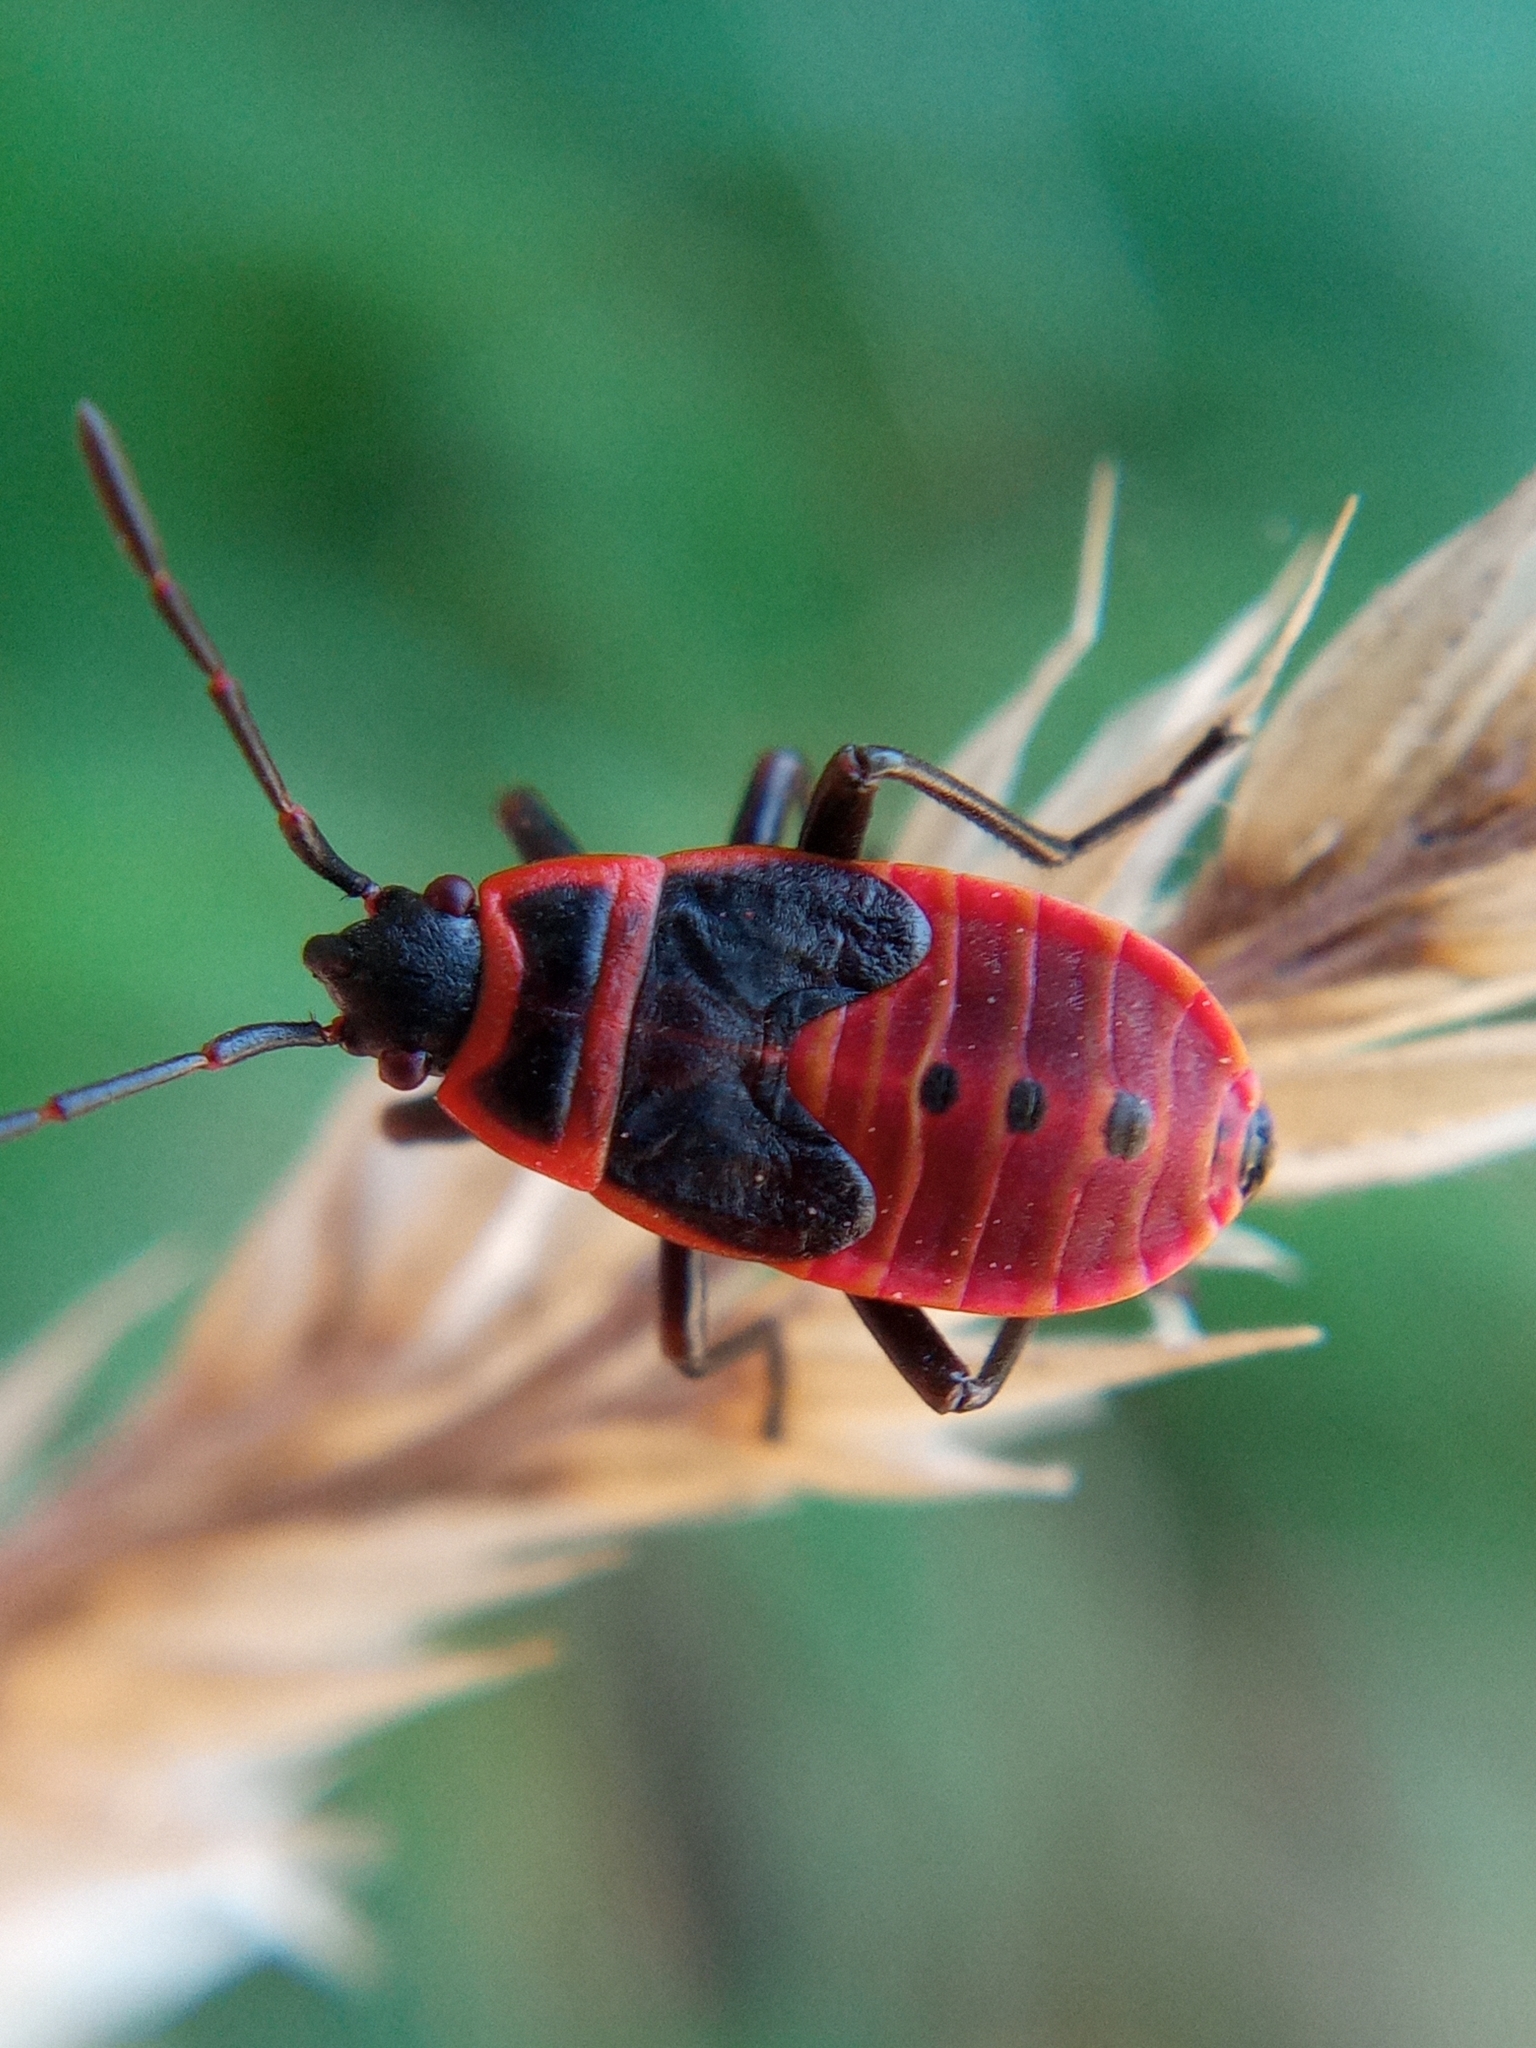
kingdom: Animalia
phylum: Arthropoda
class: Insecta
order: Hemiptera
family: Pyrrhocoridae
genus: Pyrrhocoris
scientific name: Pyrrhocoris apterus
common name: Firebug
